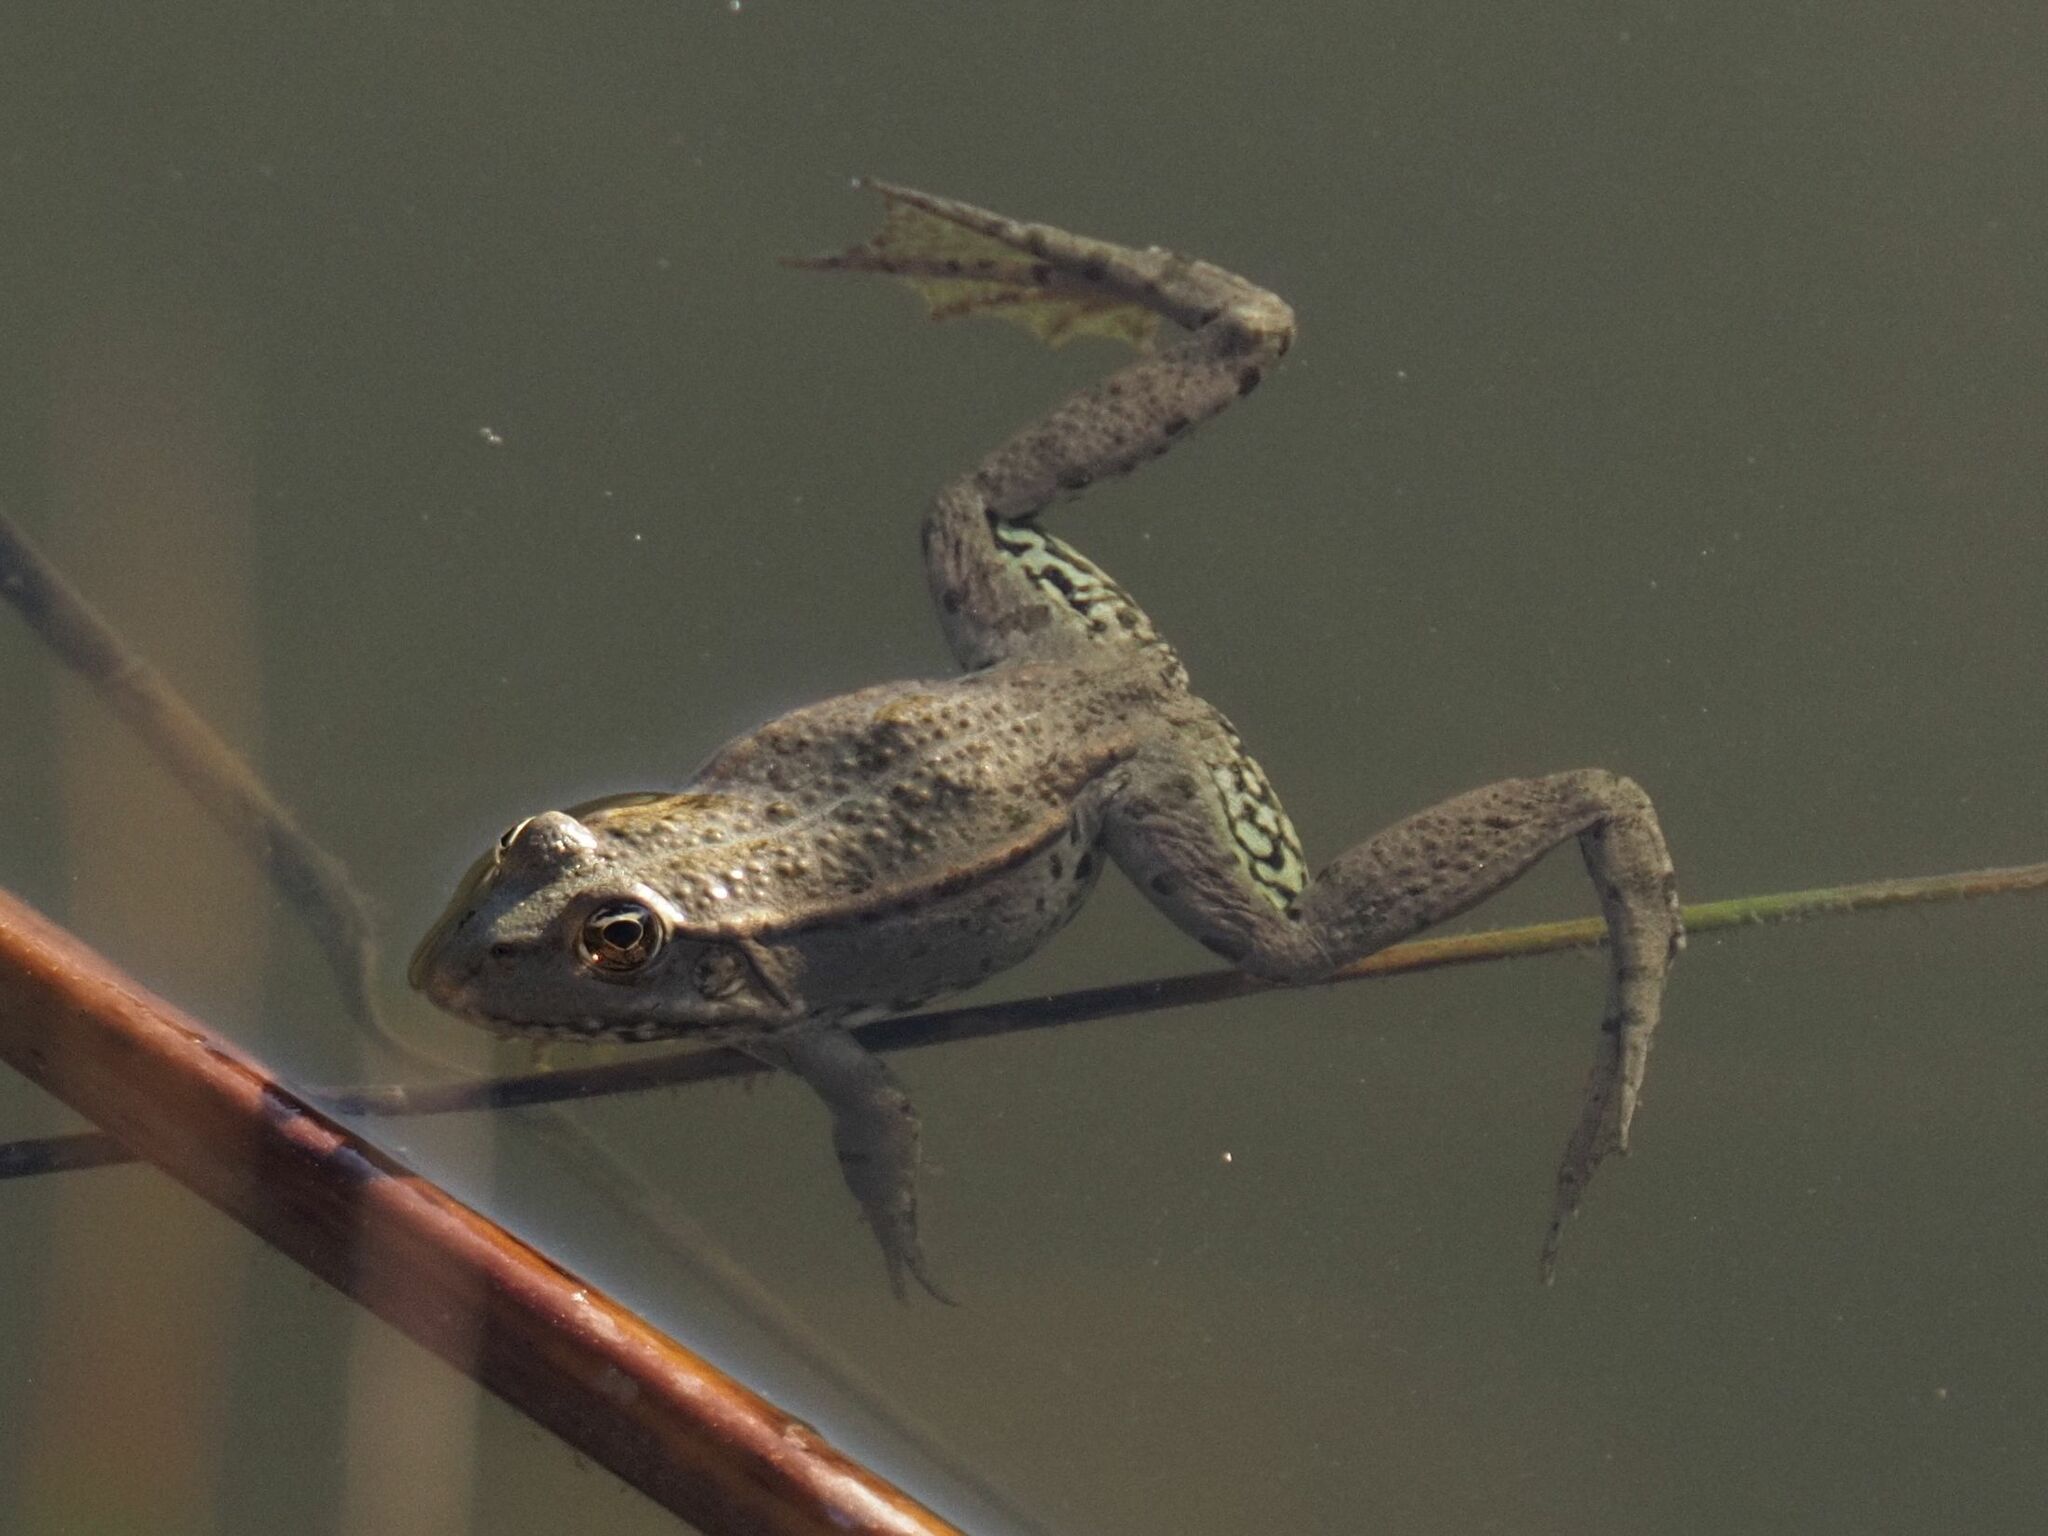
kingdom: Animalia
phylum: Chordata
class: Amphibia
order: Anura
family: Ranidae
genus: Pelophylax
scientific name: Pelophylax
